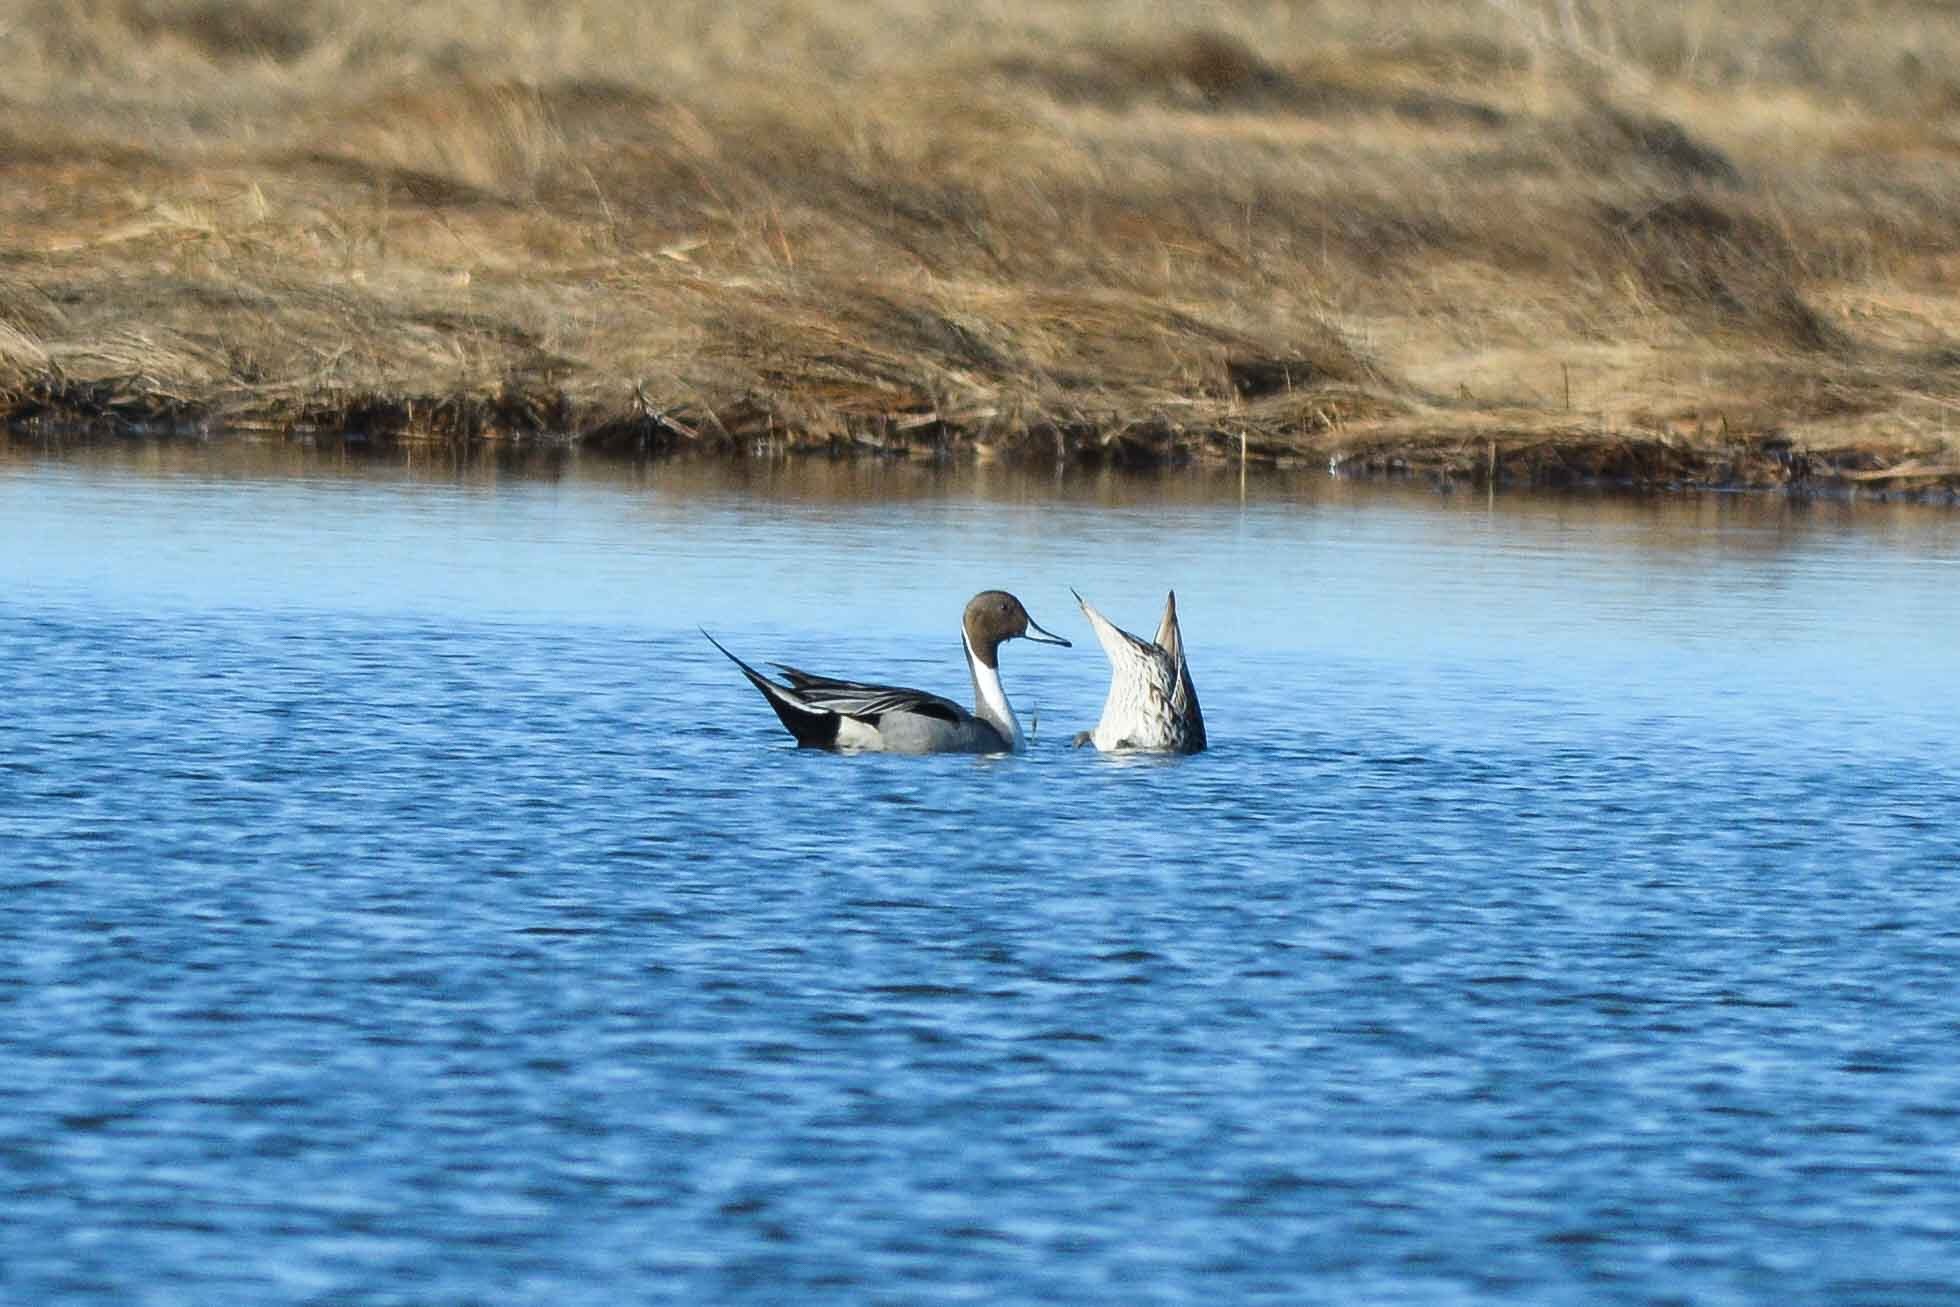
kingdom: Animalia
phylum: Chordata
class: Aves
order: Anseriformes
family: Anatidae
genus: Anas
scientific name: Anas acuta
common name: Northern pintail
